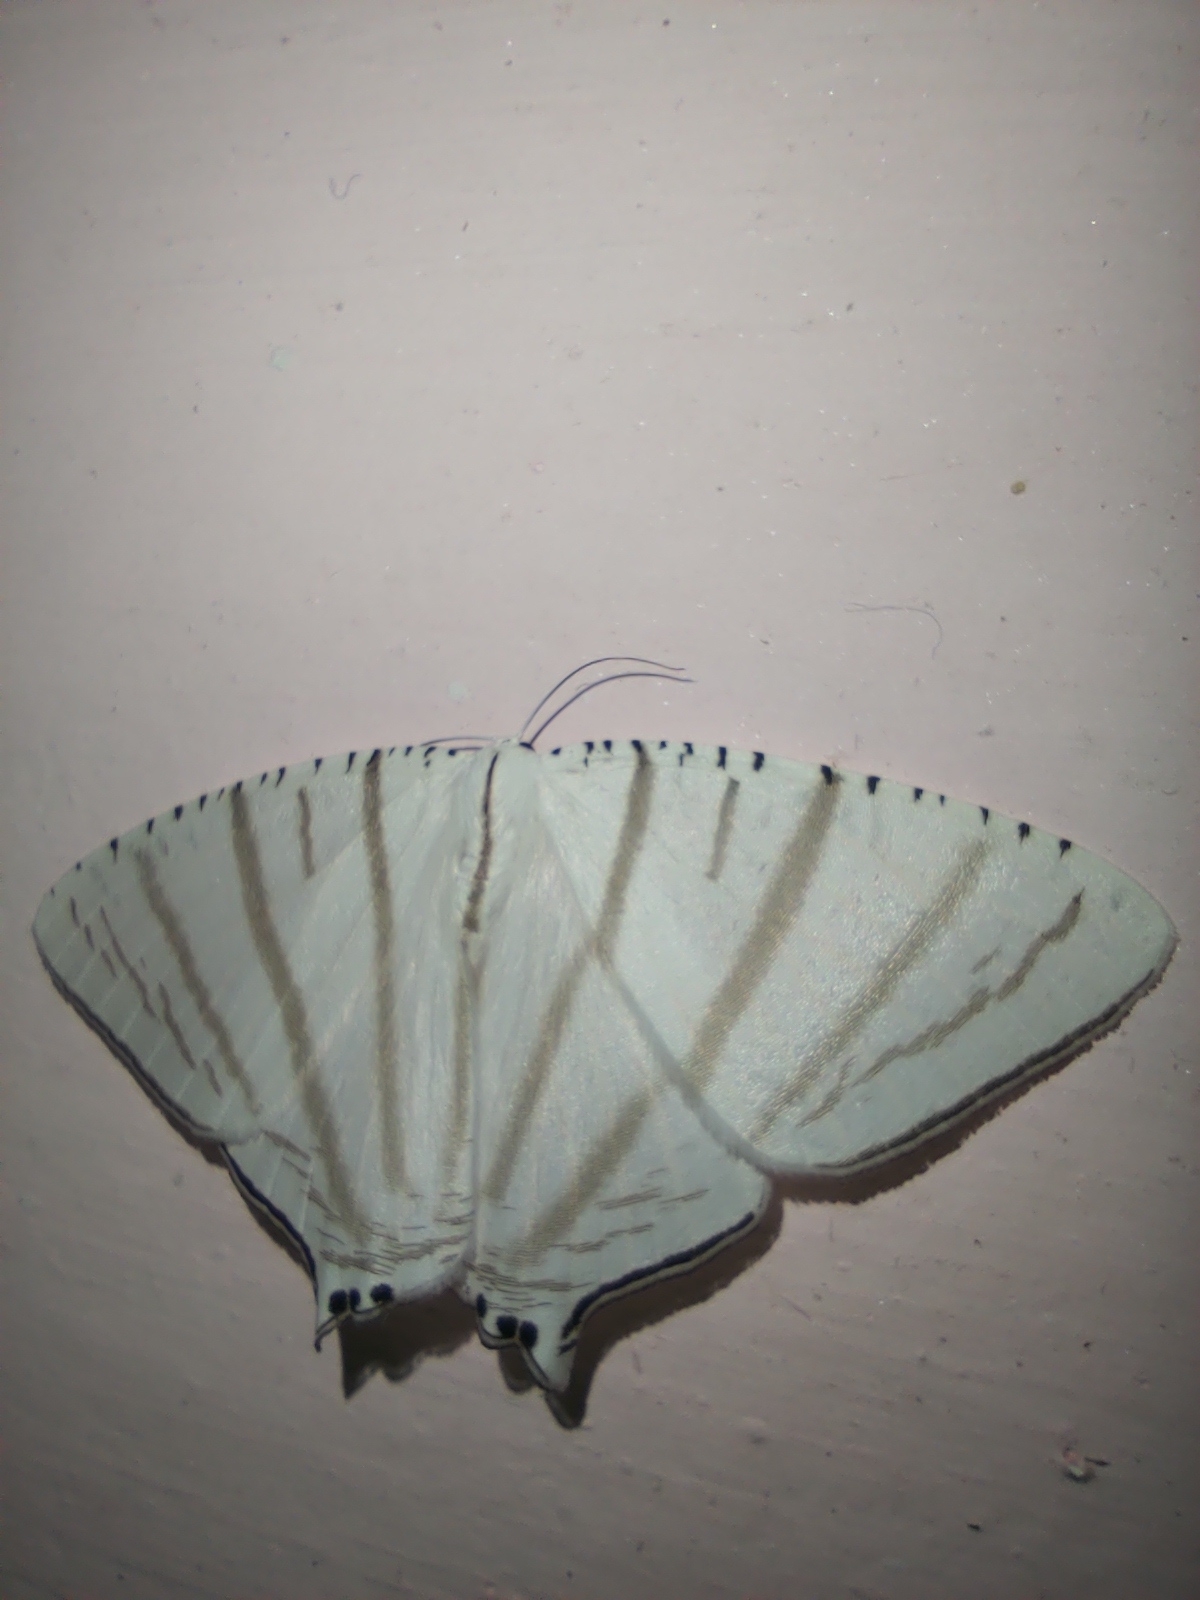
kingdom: Animalia
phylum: Arthropoda
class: Insecta
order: Lepidoptera
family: Uraniidae
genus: Urapteroides
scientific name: Urapteroides astheniata
